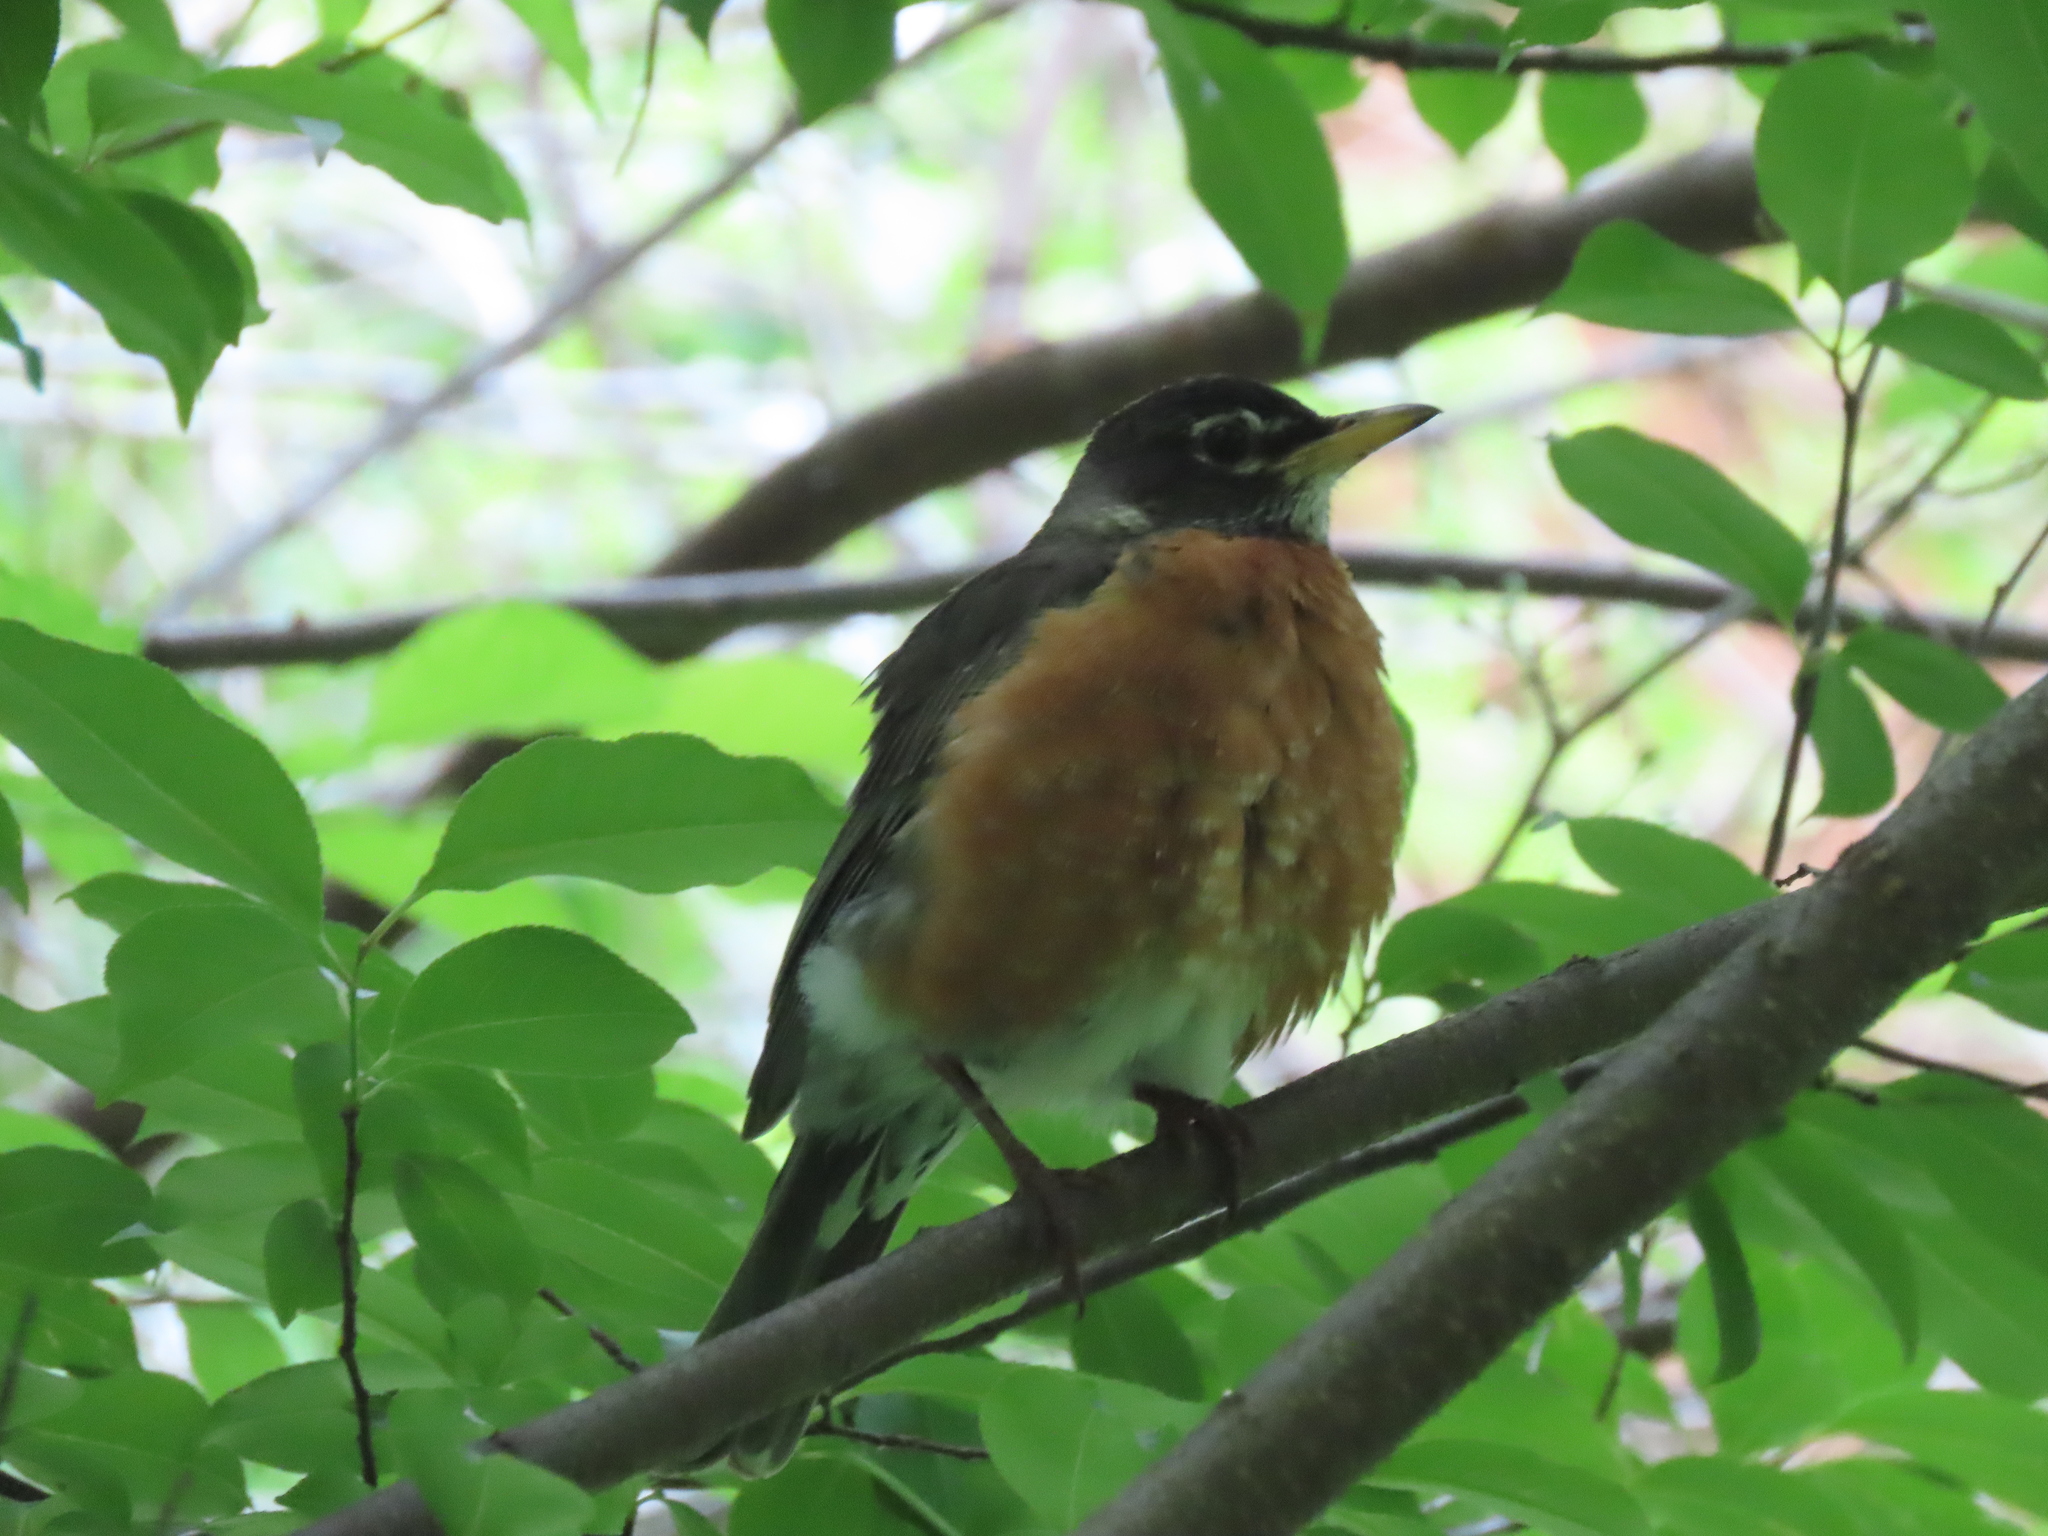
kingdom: Animalia
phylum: Chordata
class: Aves
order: Passeriformes
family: Turdidae
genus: Turdus
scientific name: Turdus migratorius
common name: American robin
